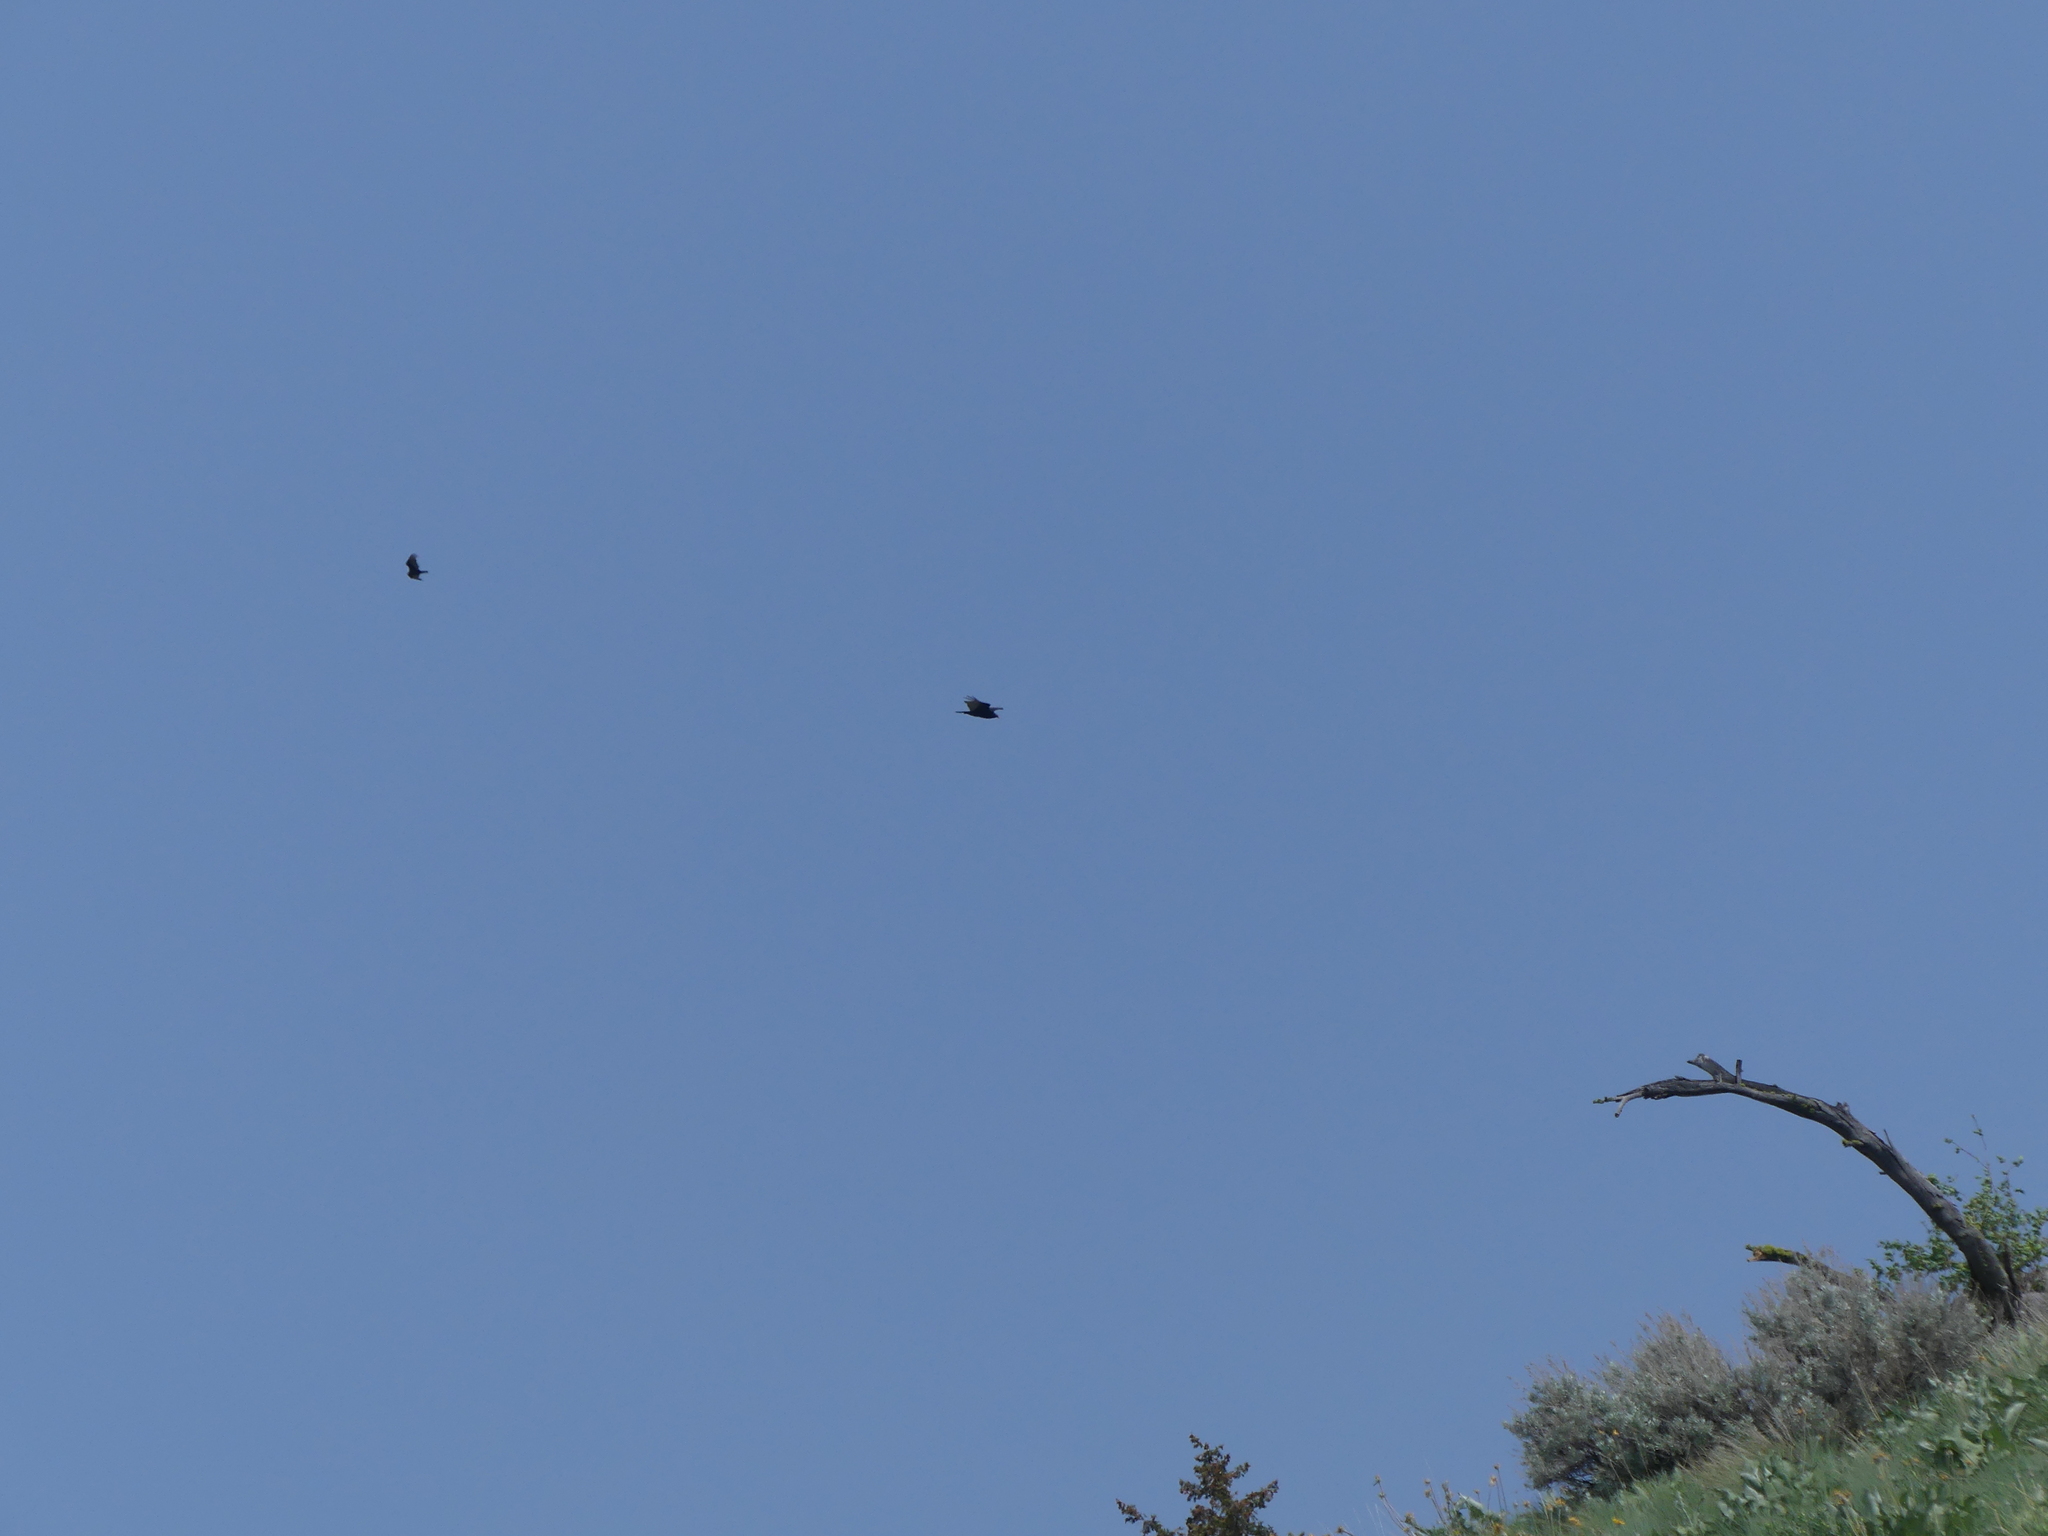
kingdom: Animalia
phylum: Chordata
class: Aves
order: Accipitriformes
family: Cathartidae
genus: Cathartes
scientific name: Cathartes aura
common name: Turkey vulture
